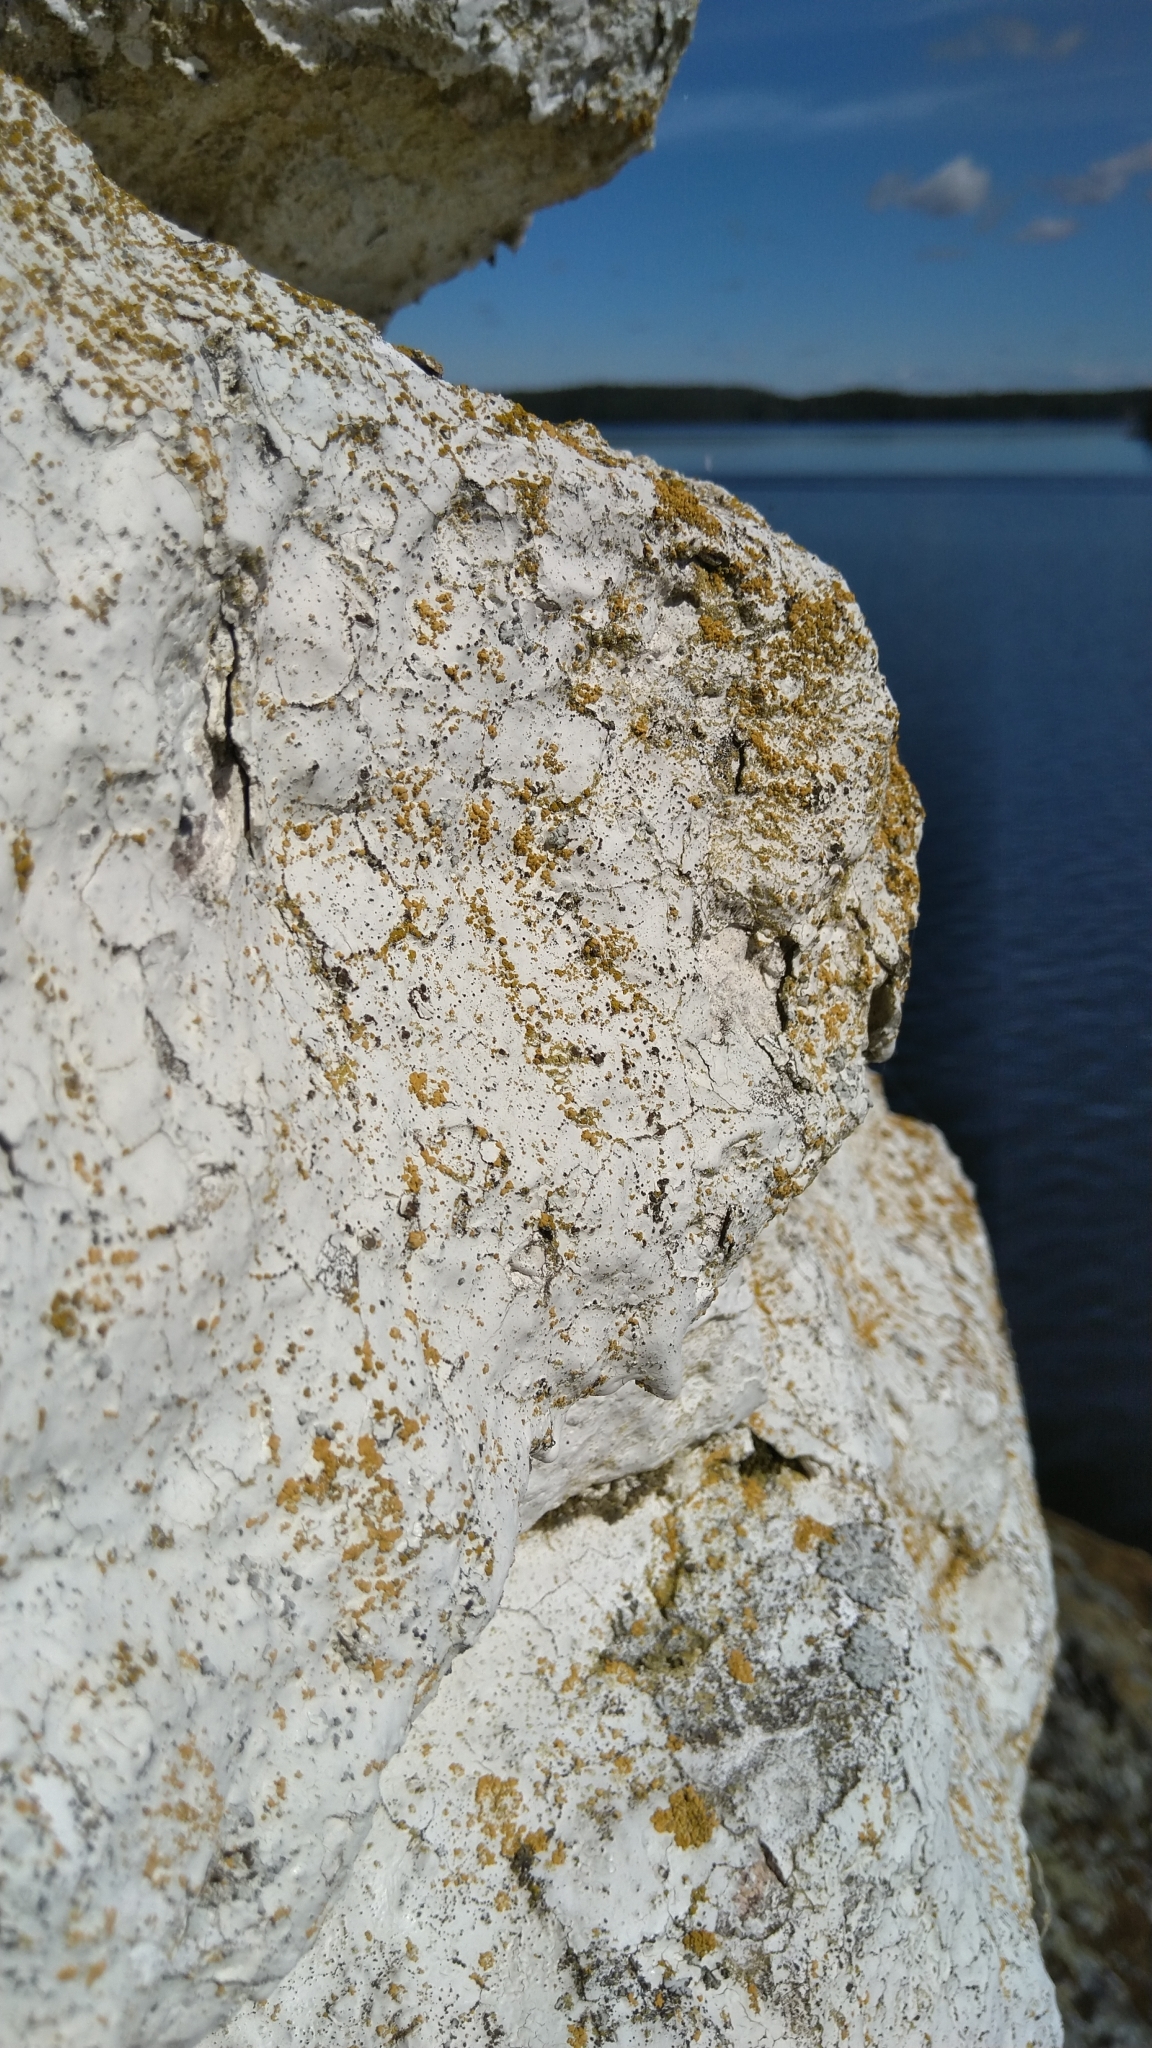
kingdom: Fungi
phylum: Ascomycota
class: Candelariomycetes
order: Candelariales
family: Candelariaceae
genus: Candelariella
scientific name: Candelariella
